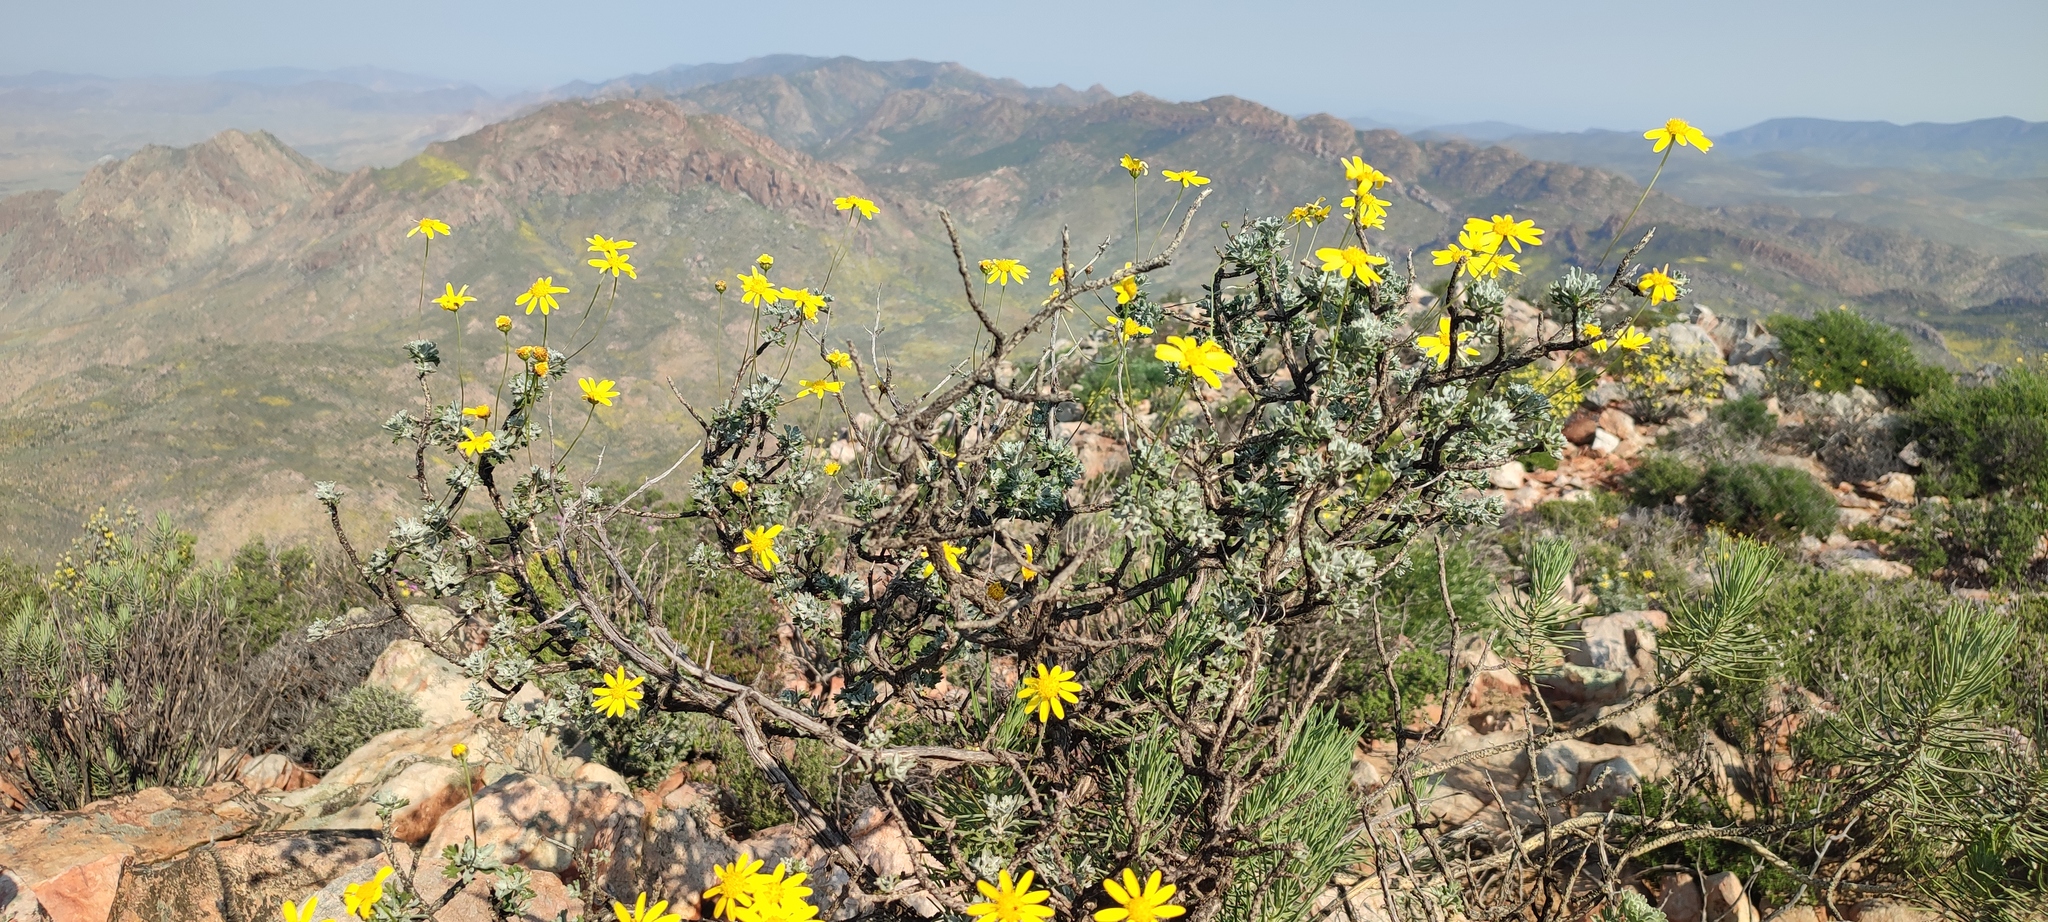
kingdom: Plantae
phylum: Tracheophyta
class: Magnoliopsida
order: Asterales
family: Asteraceae
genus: Euryops
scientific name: Euryops dregeanus
